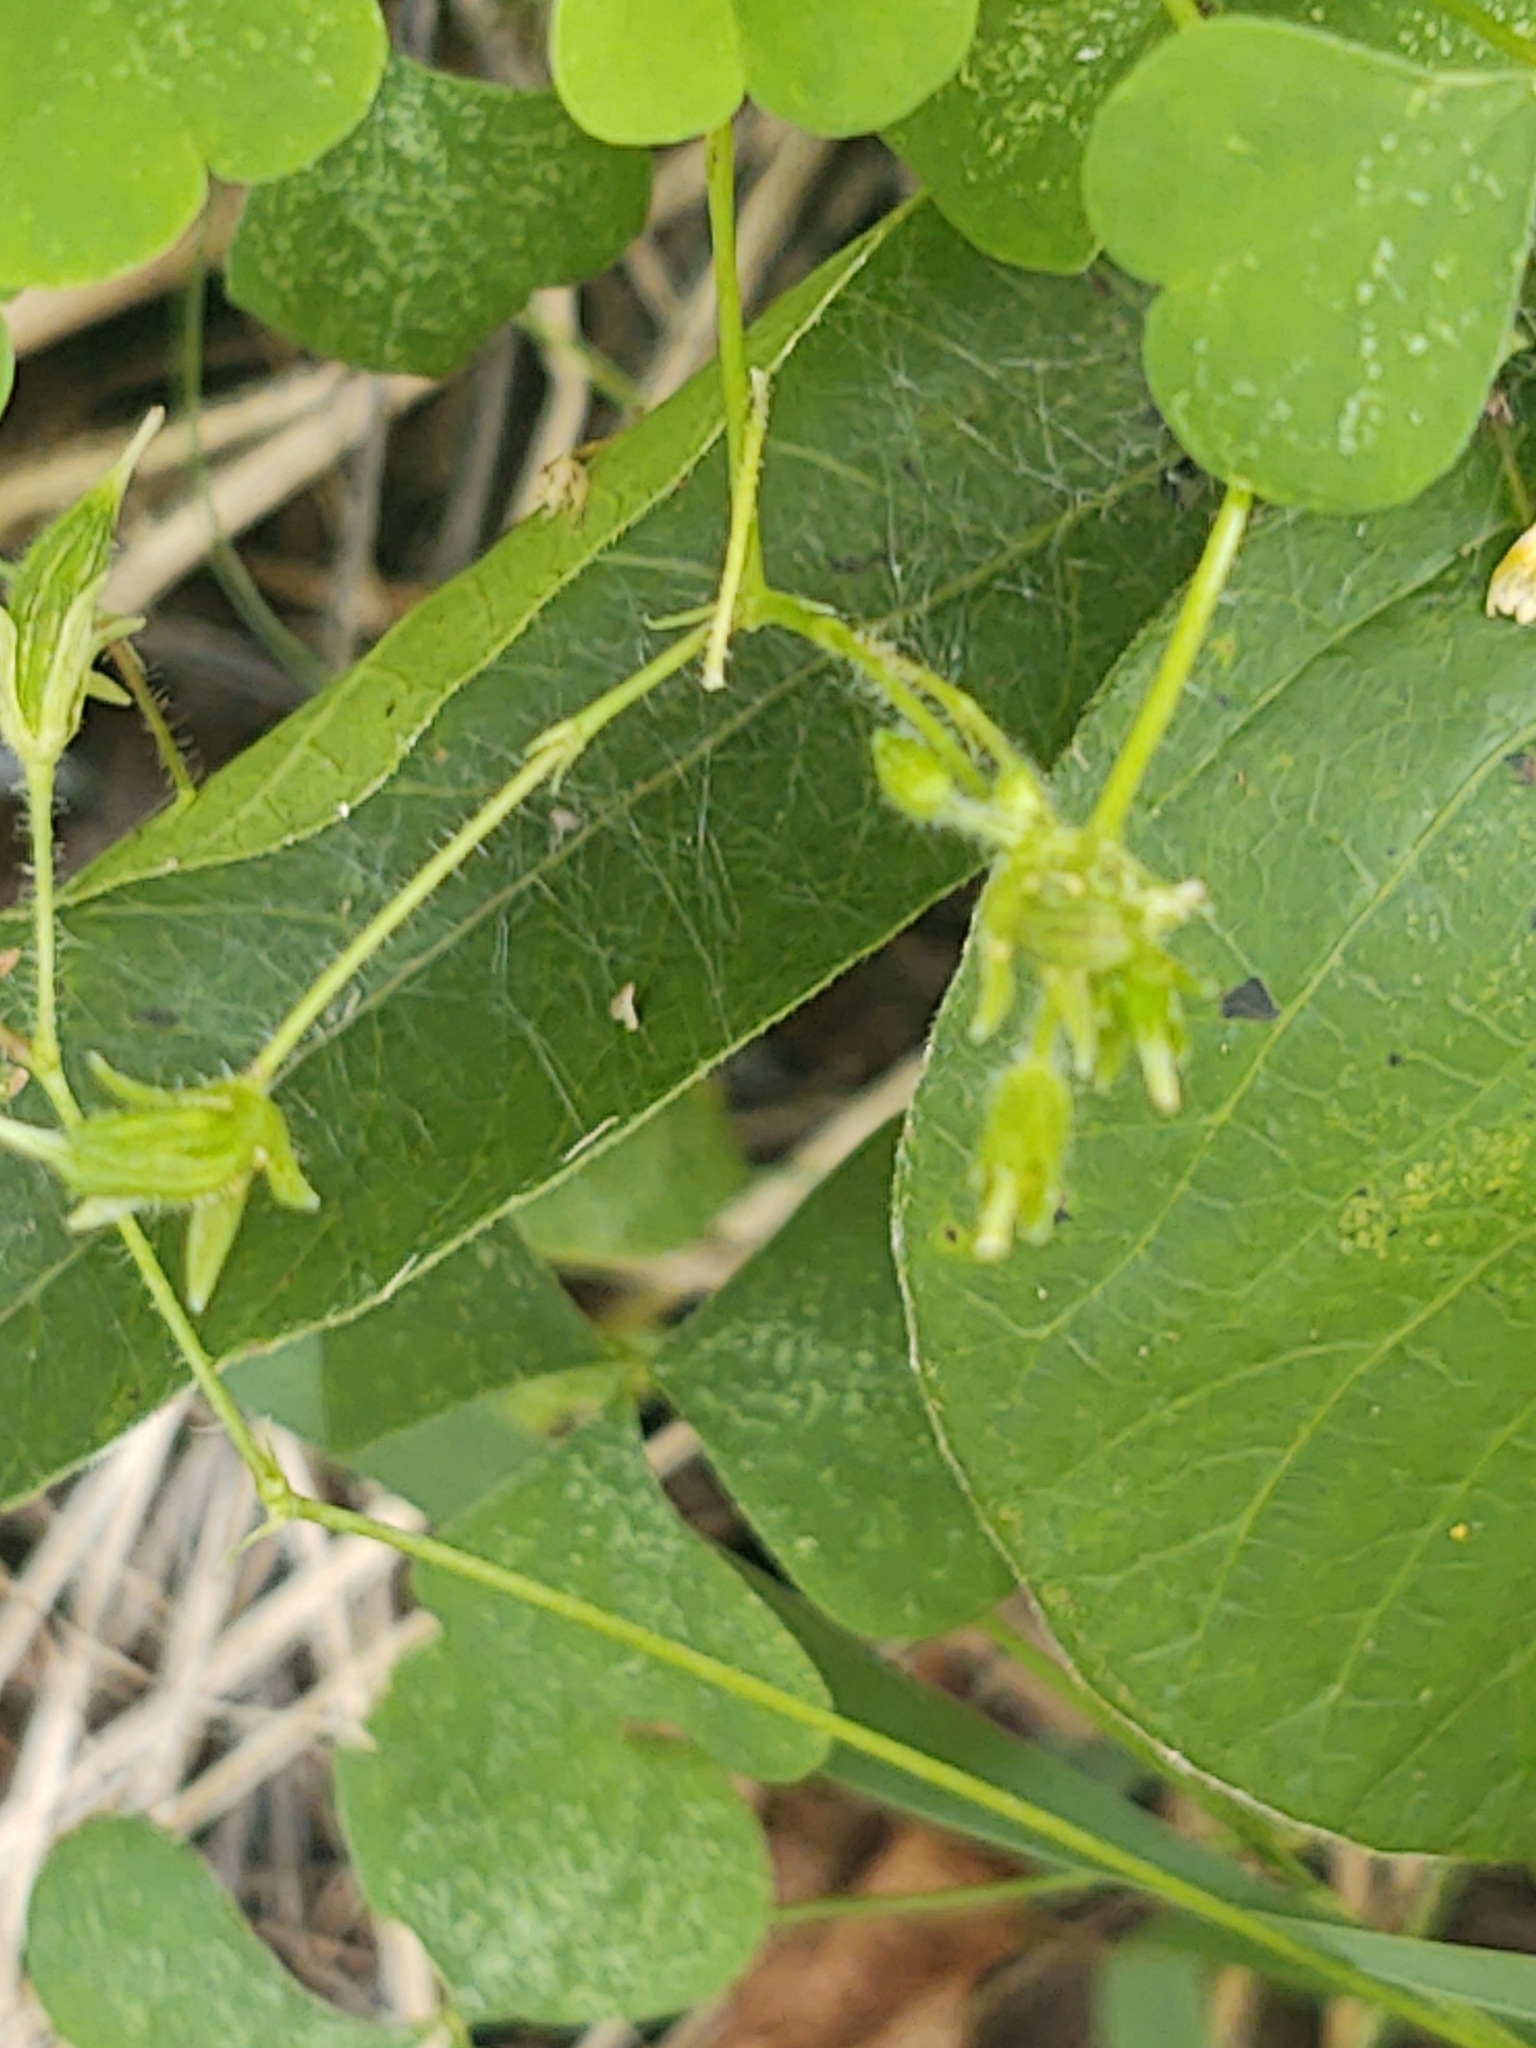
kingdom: Plantae
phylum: Tracheophyta
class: Magnoliopsida
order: Oxalidales
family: Oxalidaceae
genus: Oxalis
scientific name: Oxalis stricta
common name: Upright yellow-sorrel
